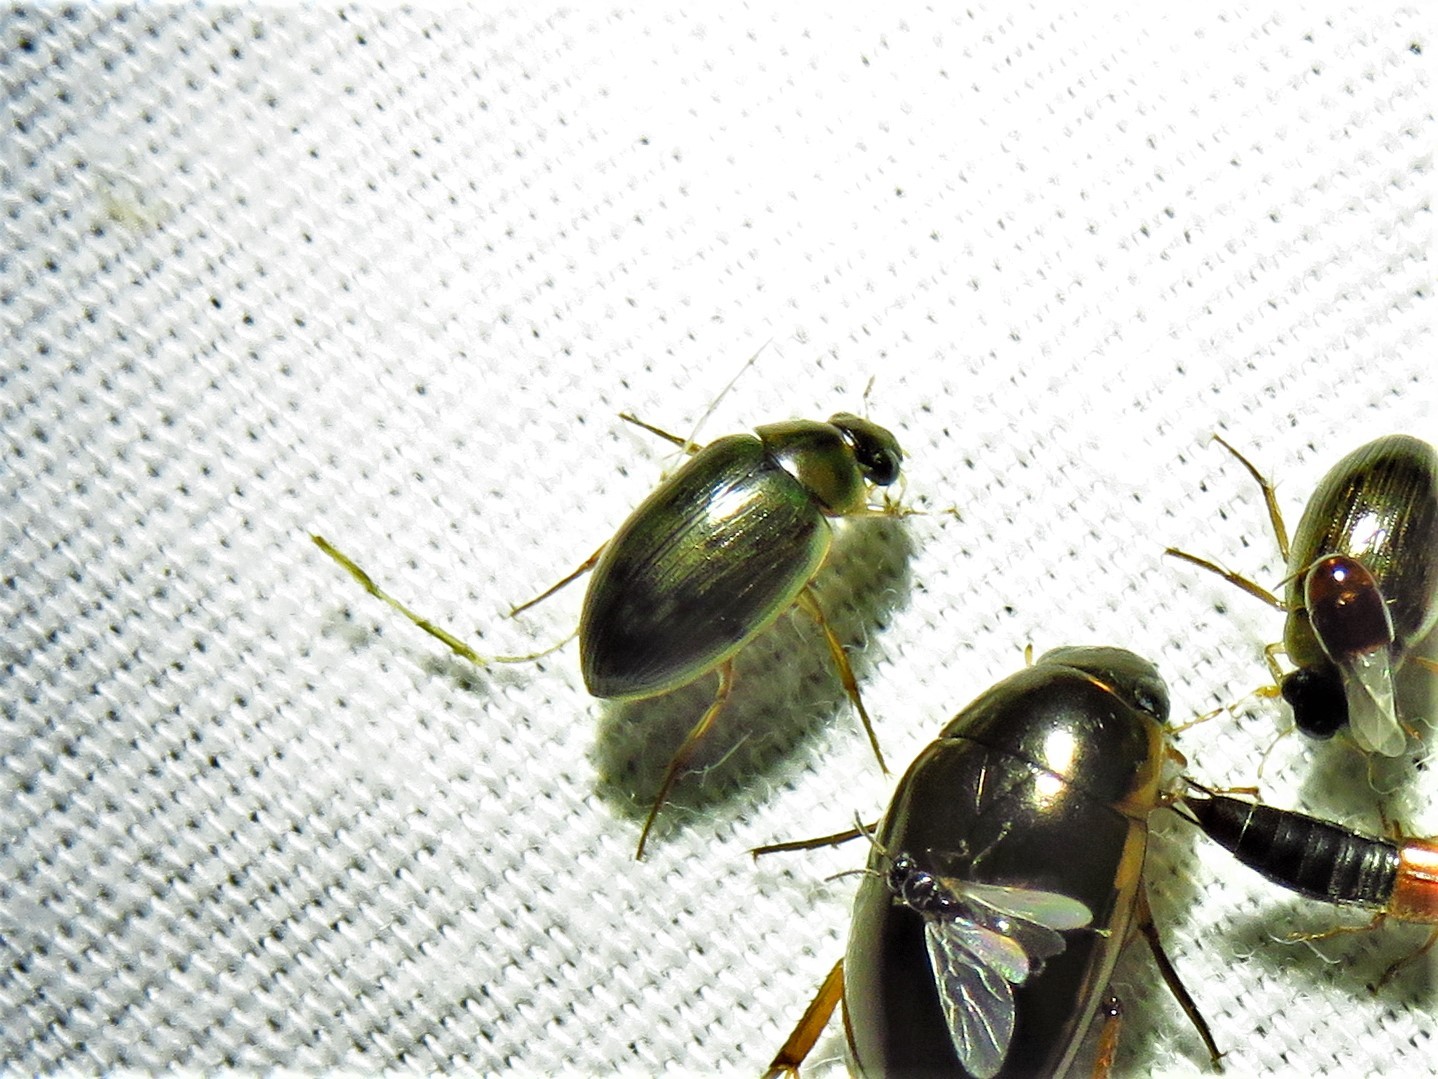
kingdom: Animalia
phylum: Arthropoda
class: Insecta
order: Coleoptera
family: Hydrophilidae
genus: Berosus
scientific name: Berosus
